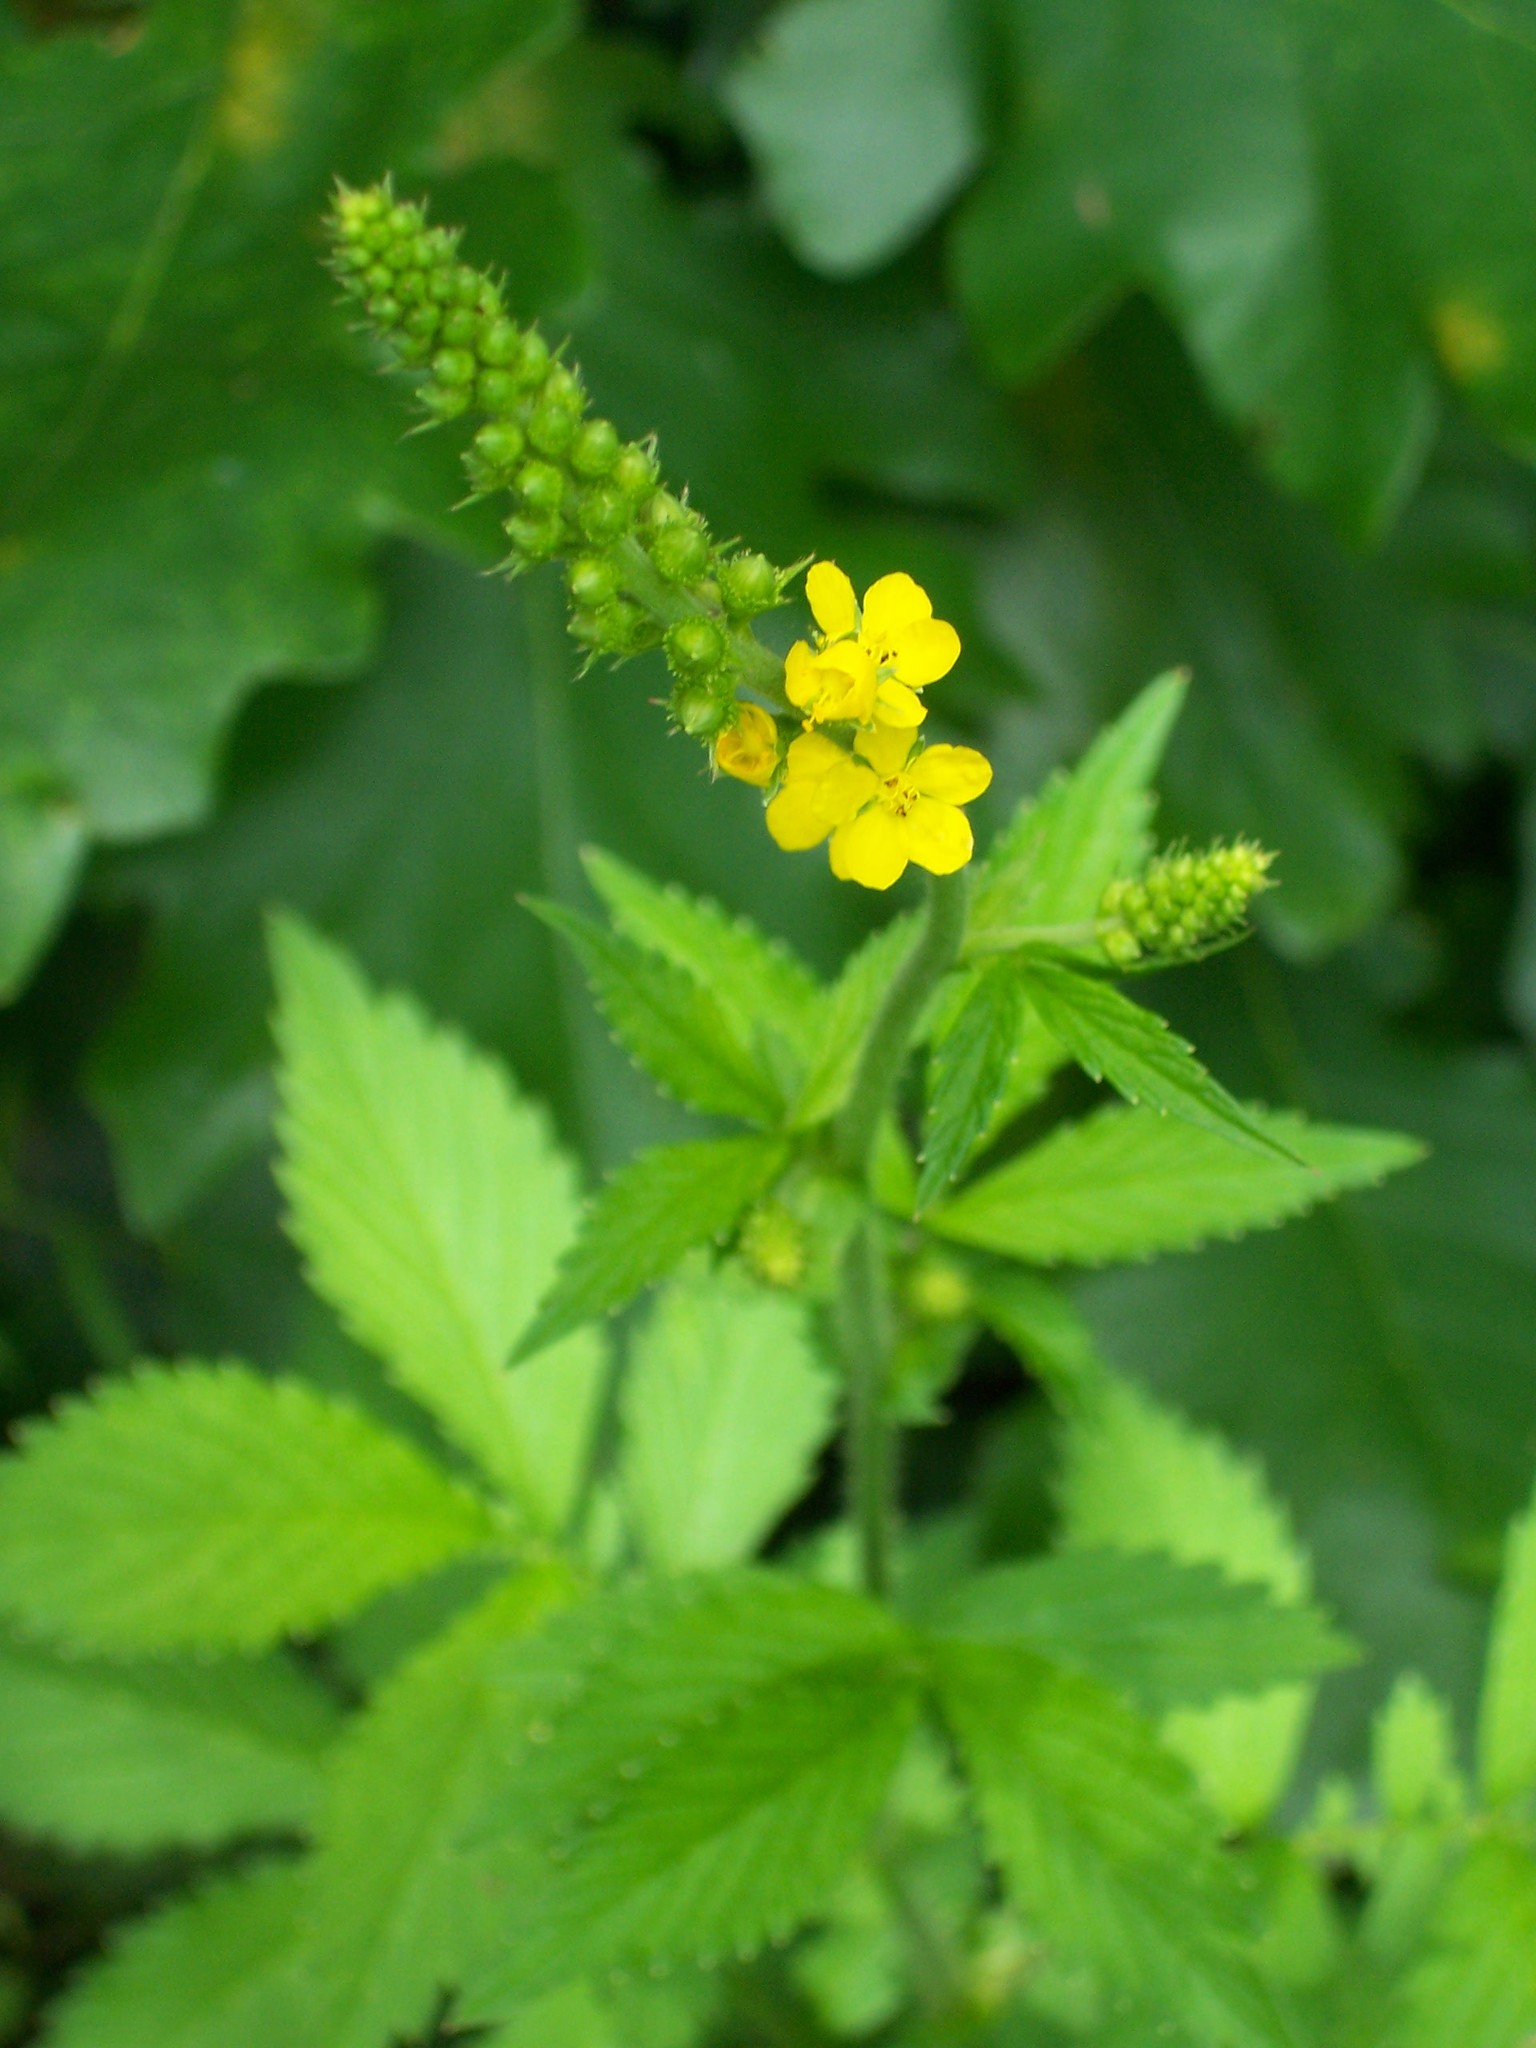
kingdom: Plantae
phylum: Tracheophyta
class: Magnoliopsida
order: Rosales
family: Rosaceae
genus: Agrimonia
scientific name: Agrimonia gryposepala
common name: Common agrimony
